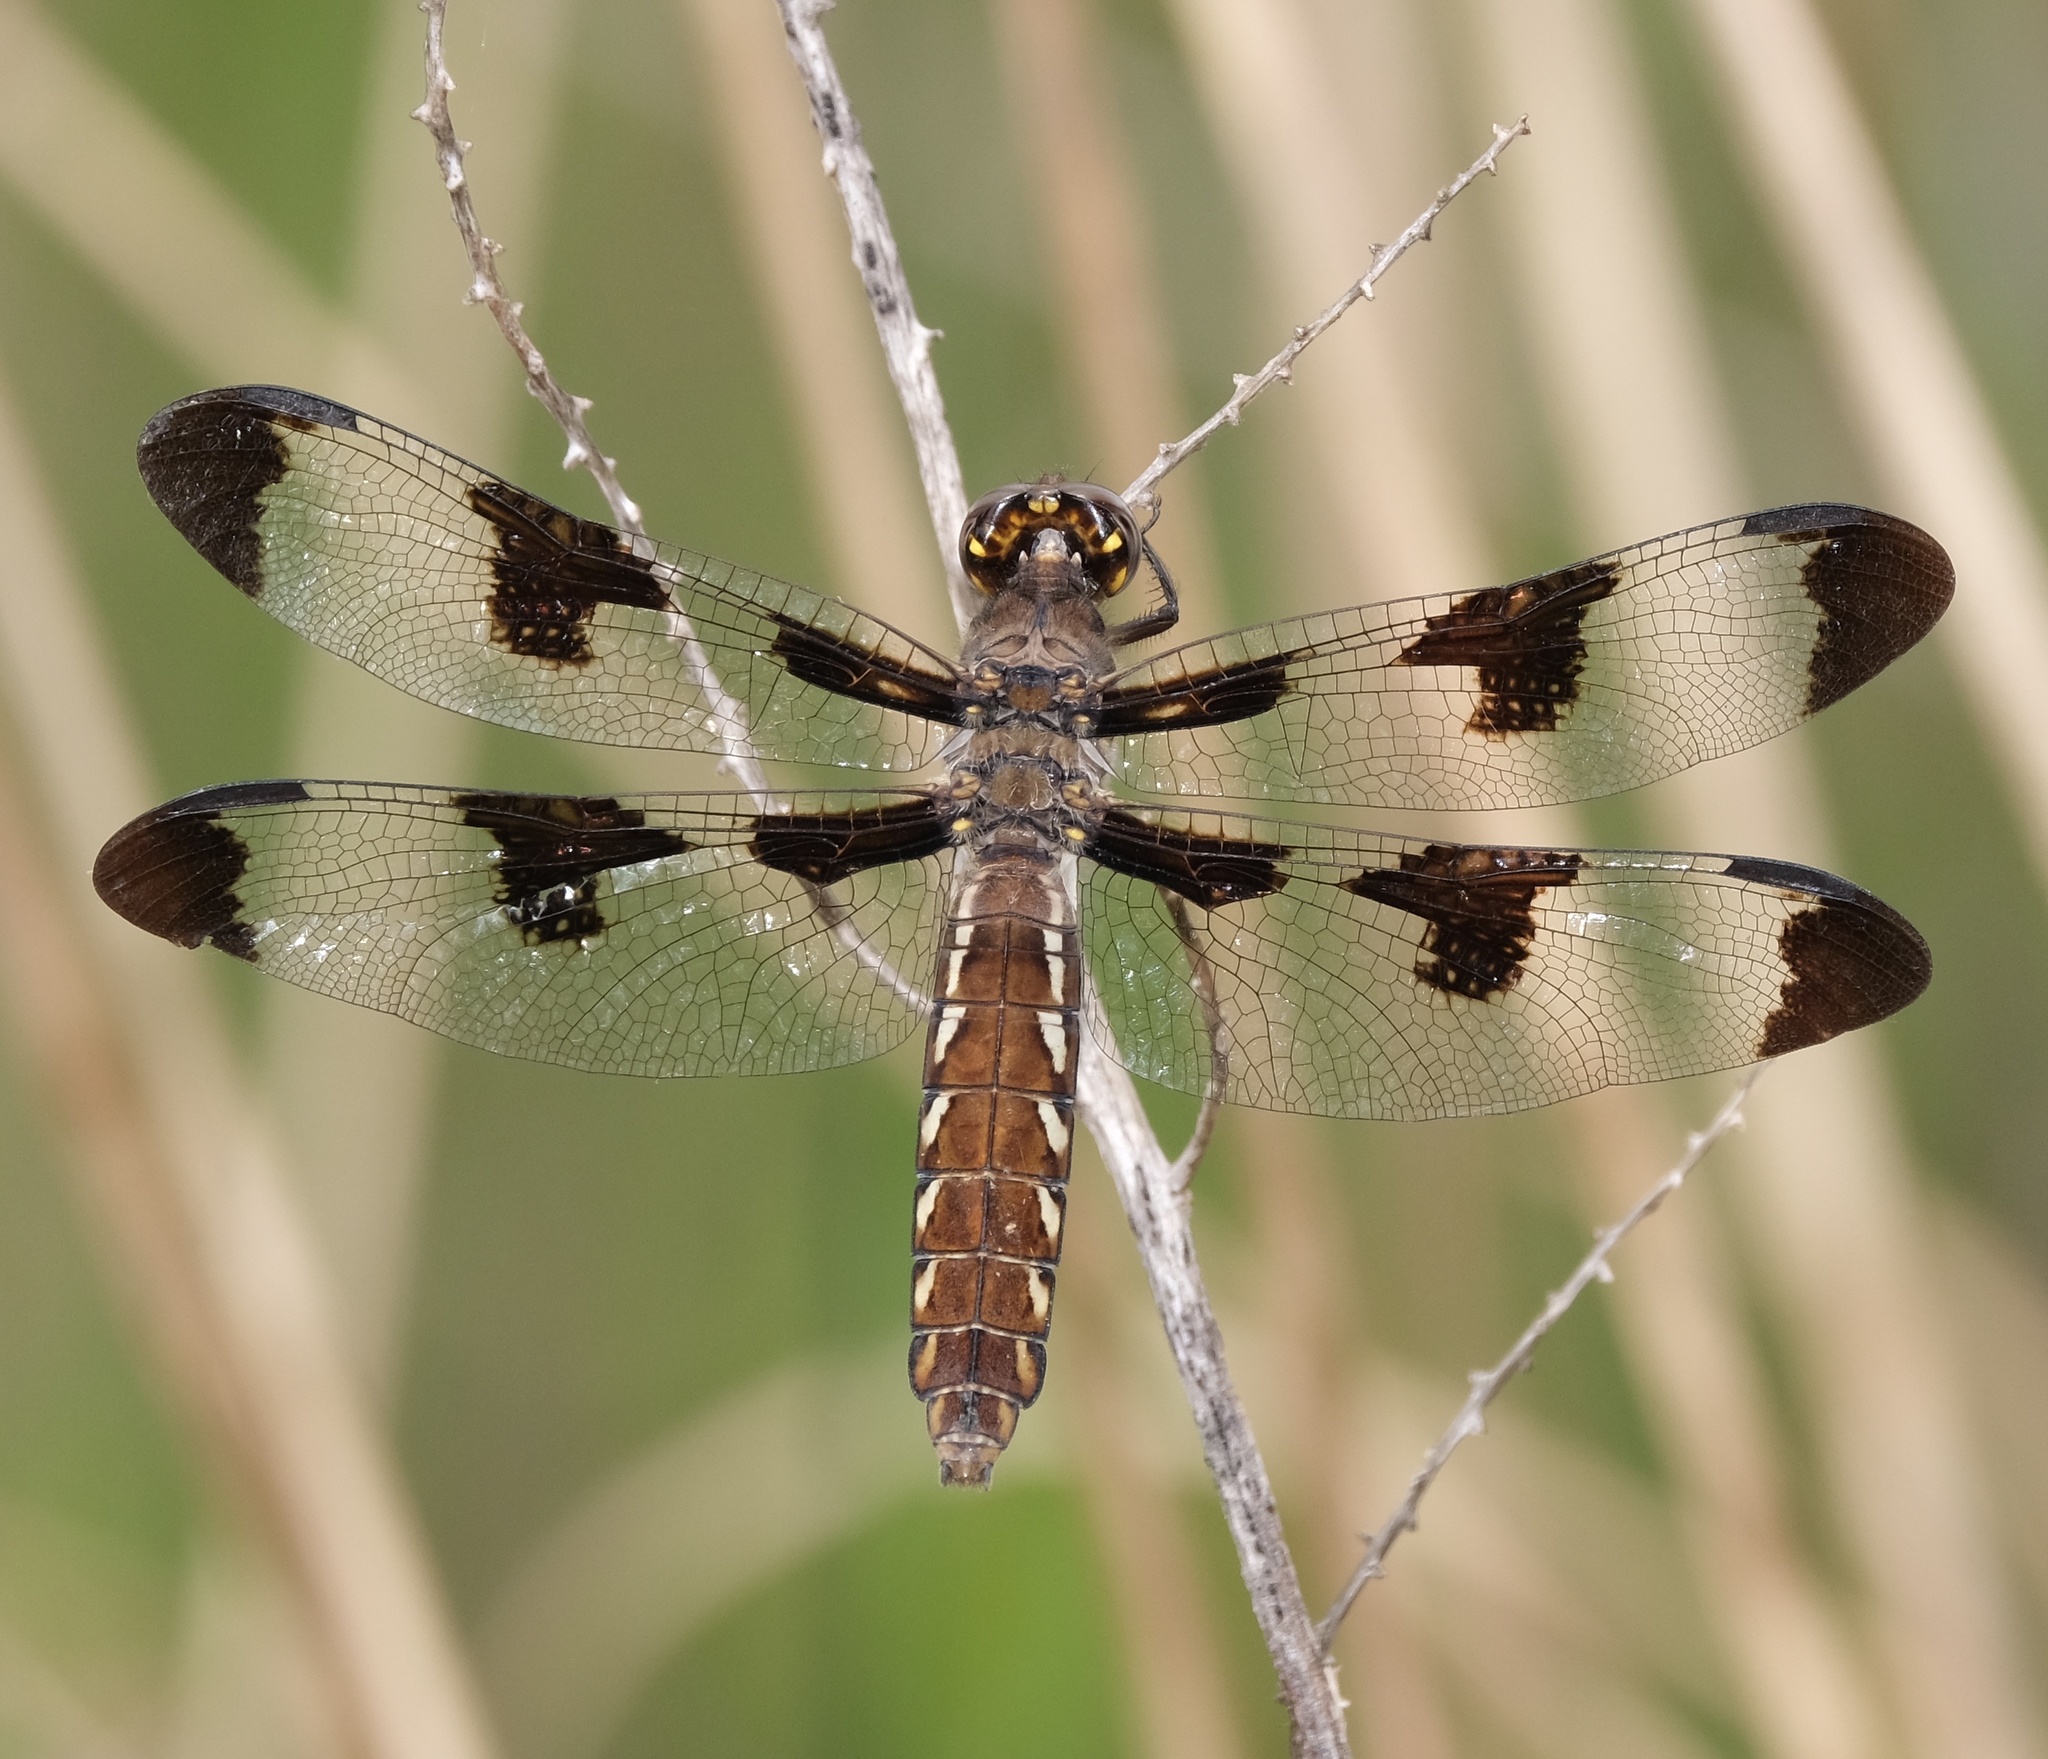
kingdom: Animalia
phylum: Arthropoda
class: Insecta
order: Odonata
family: Libellulidae
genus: Plathemis
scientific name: Plathemis lydia
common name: Common whitetail
